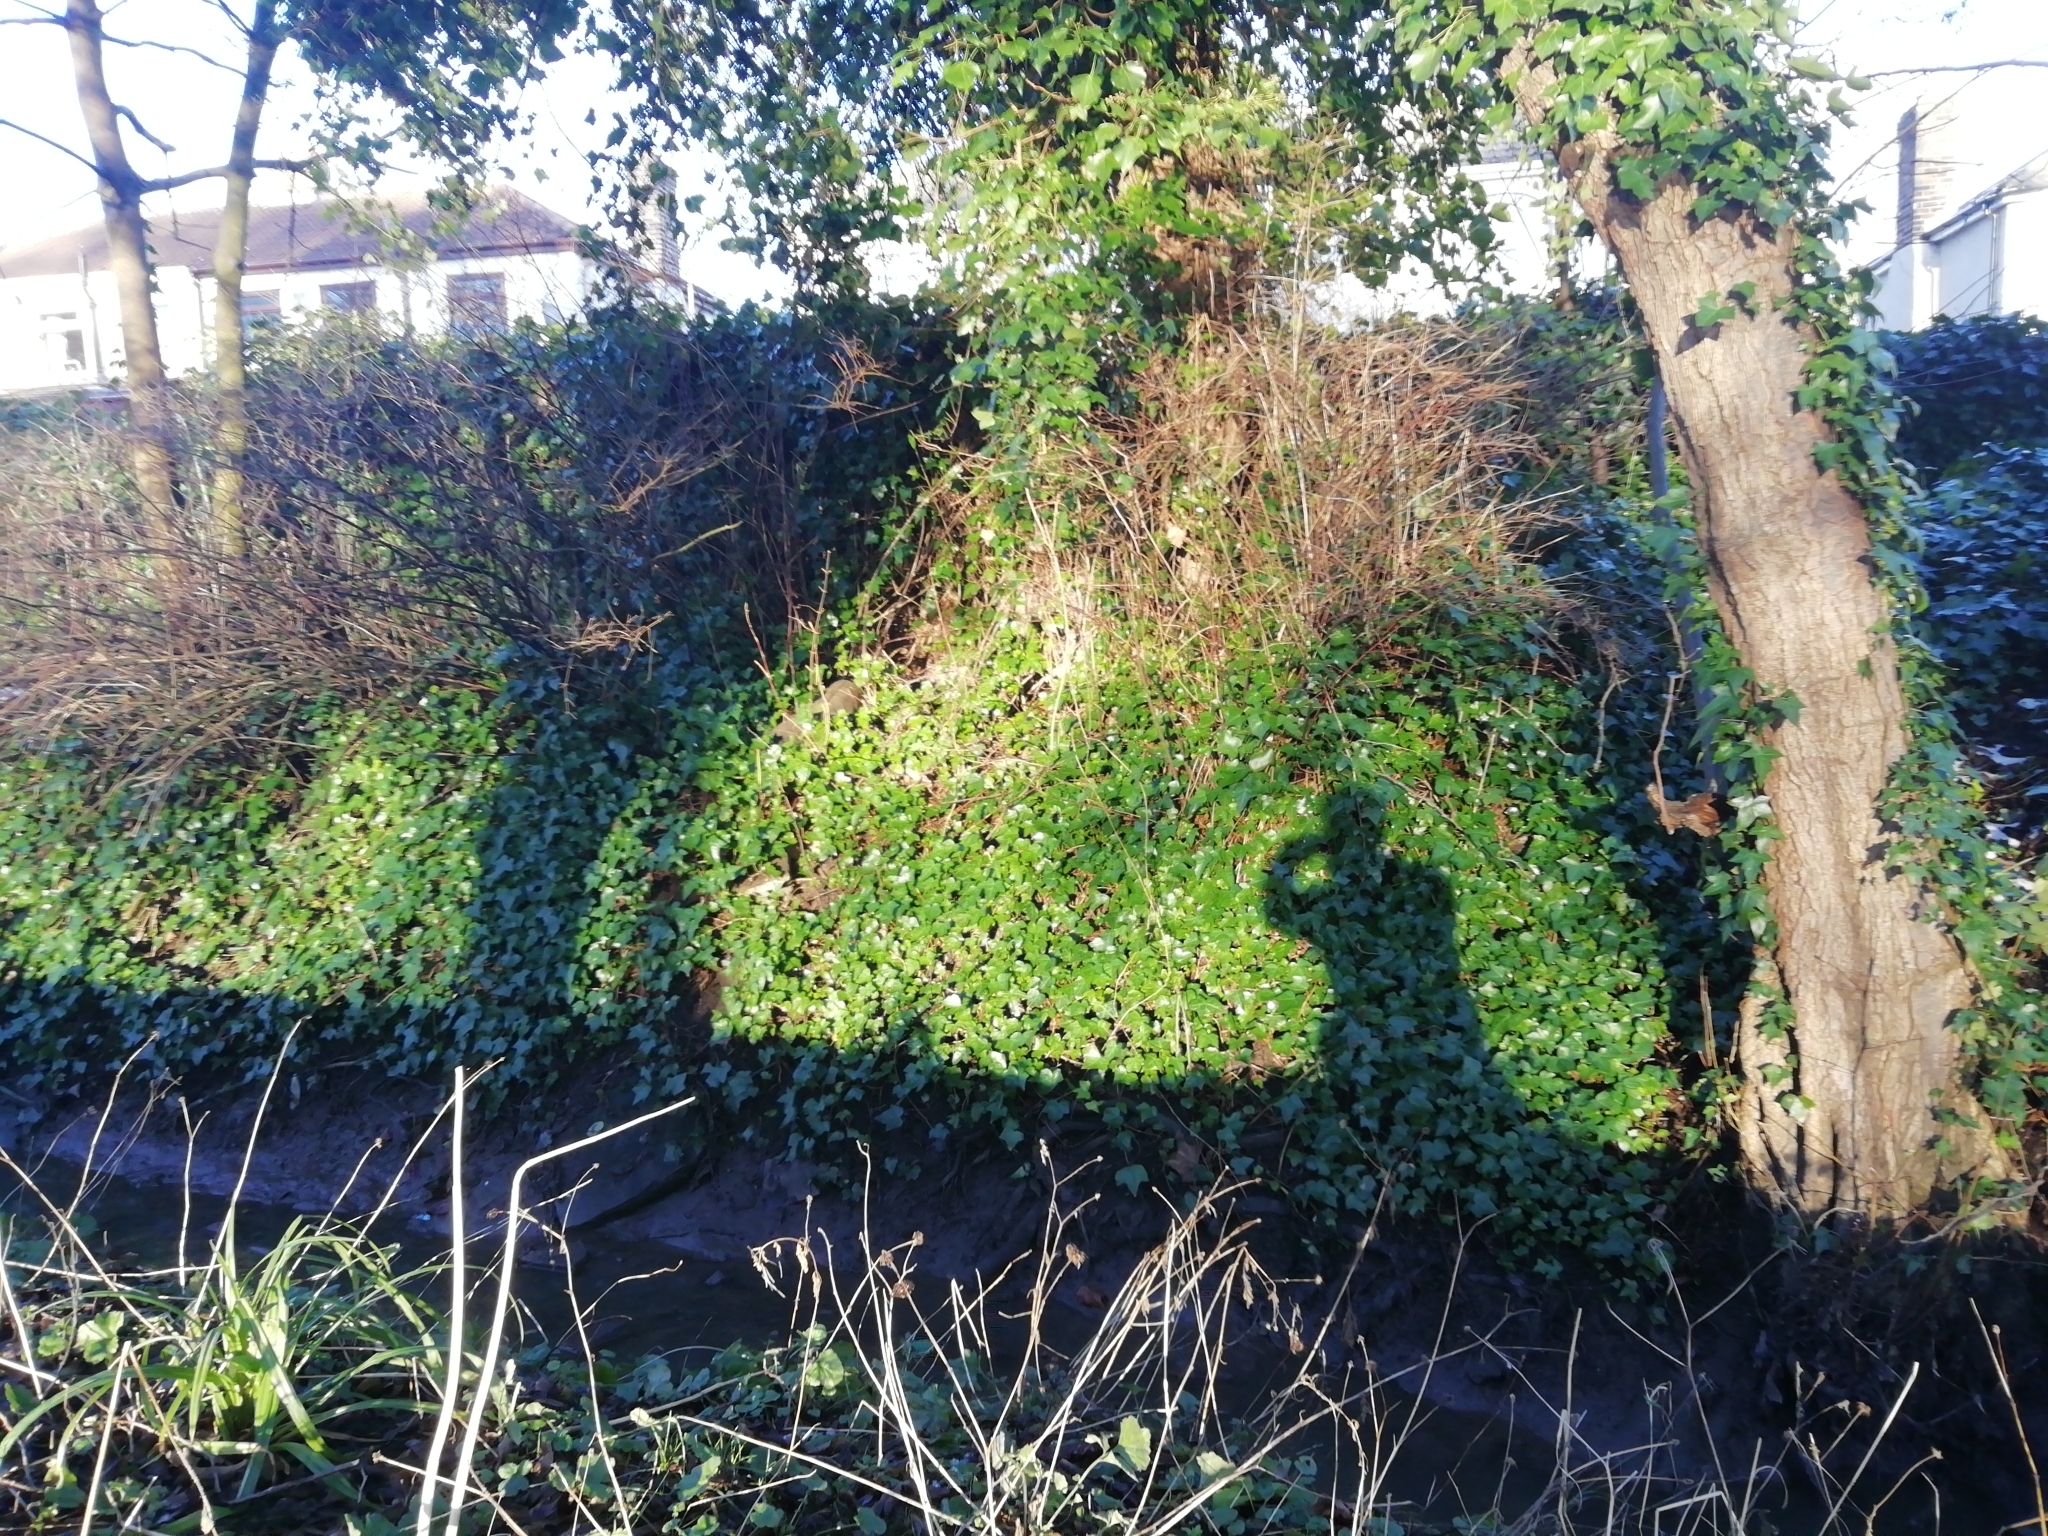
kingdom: Plantae
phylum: Tracheophyta
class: Magnoliopsida
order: Apiales
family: Araliaceae
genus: Hedera
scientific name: Hedera helix
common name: Ivy
